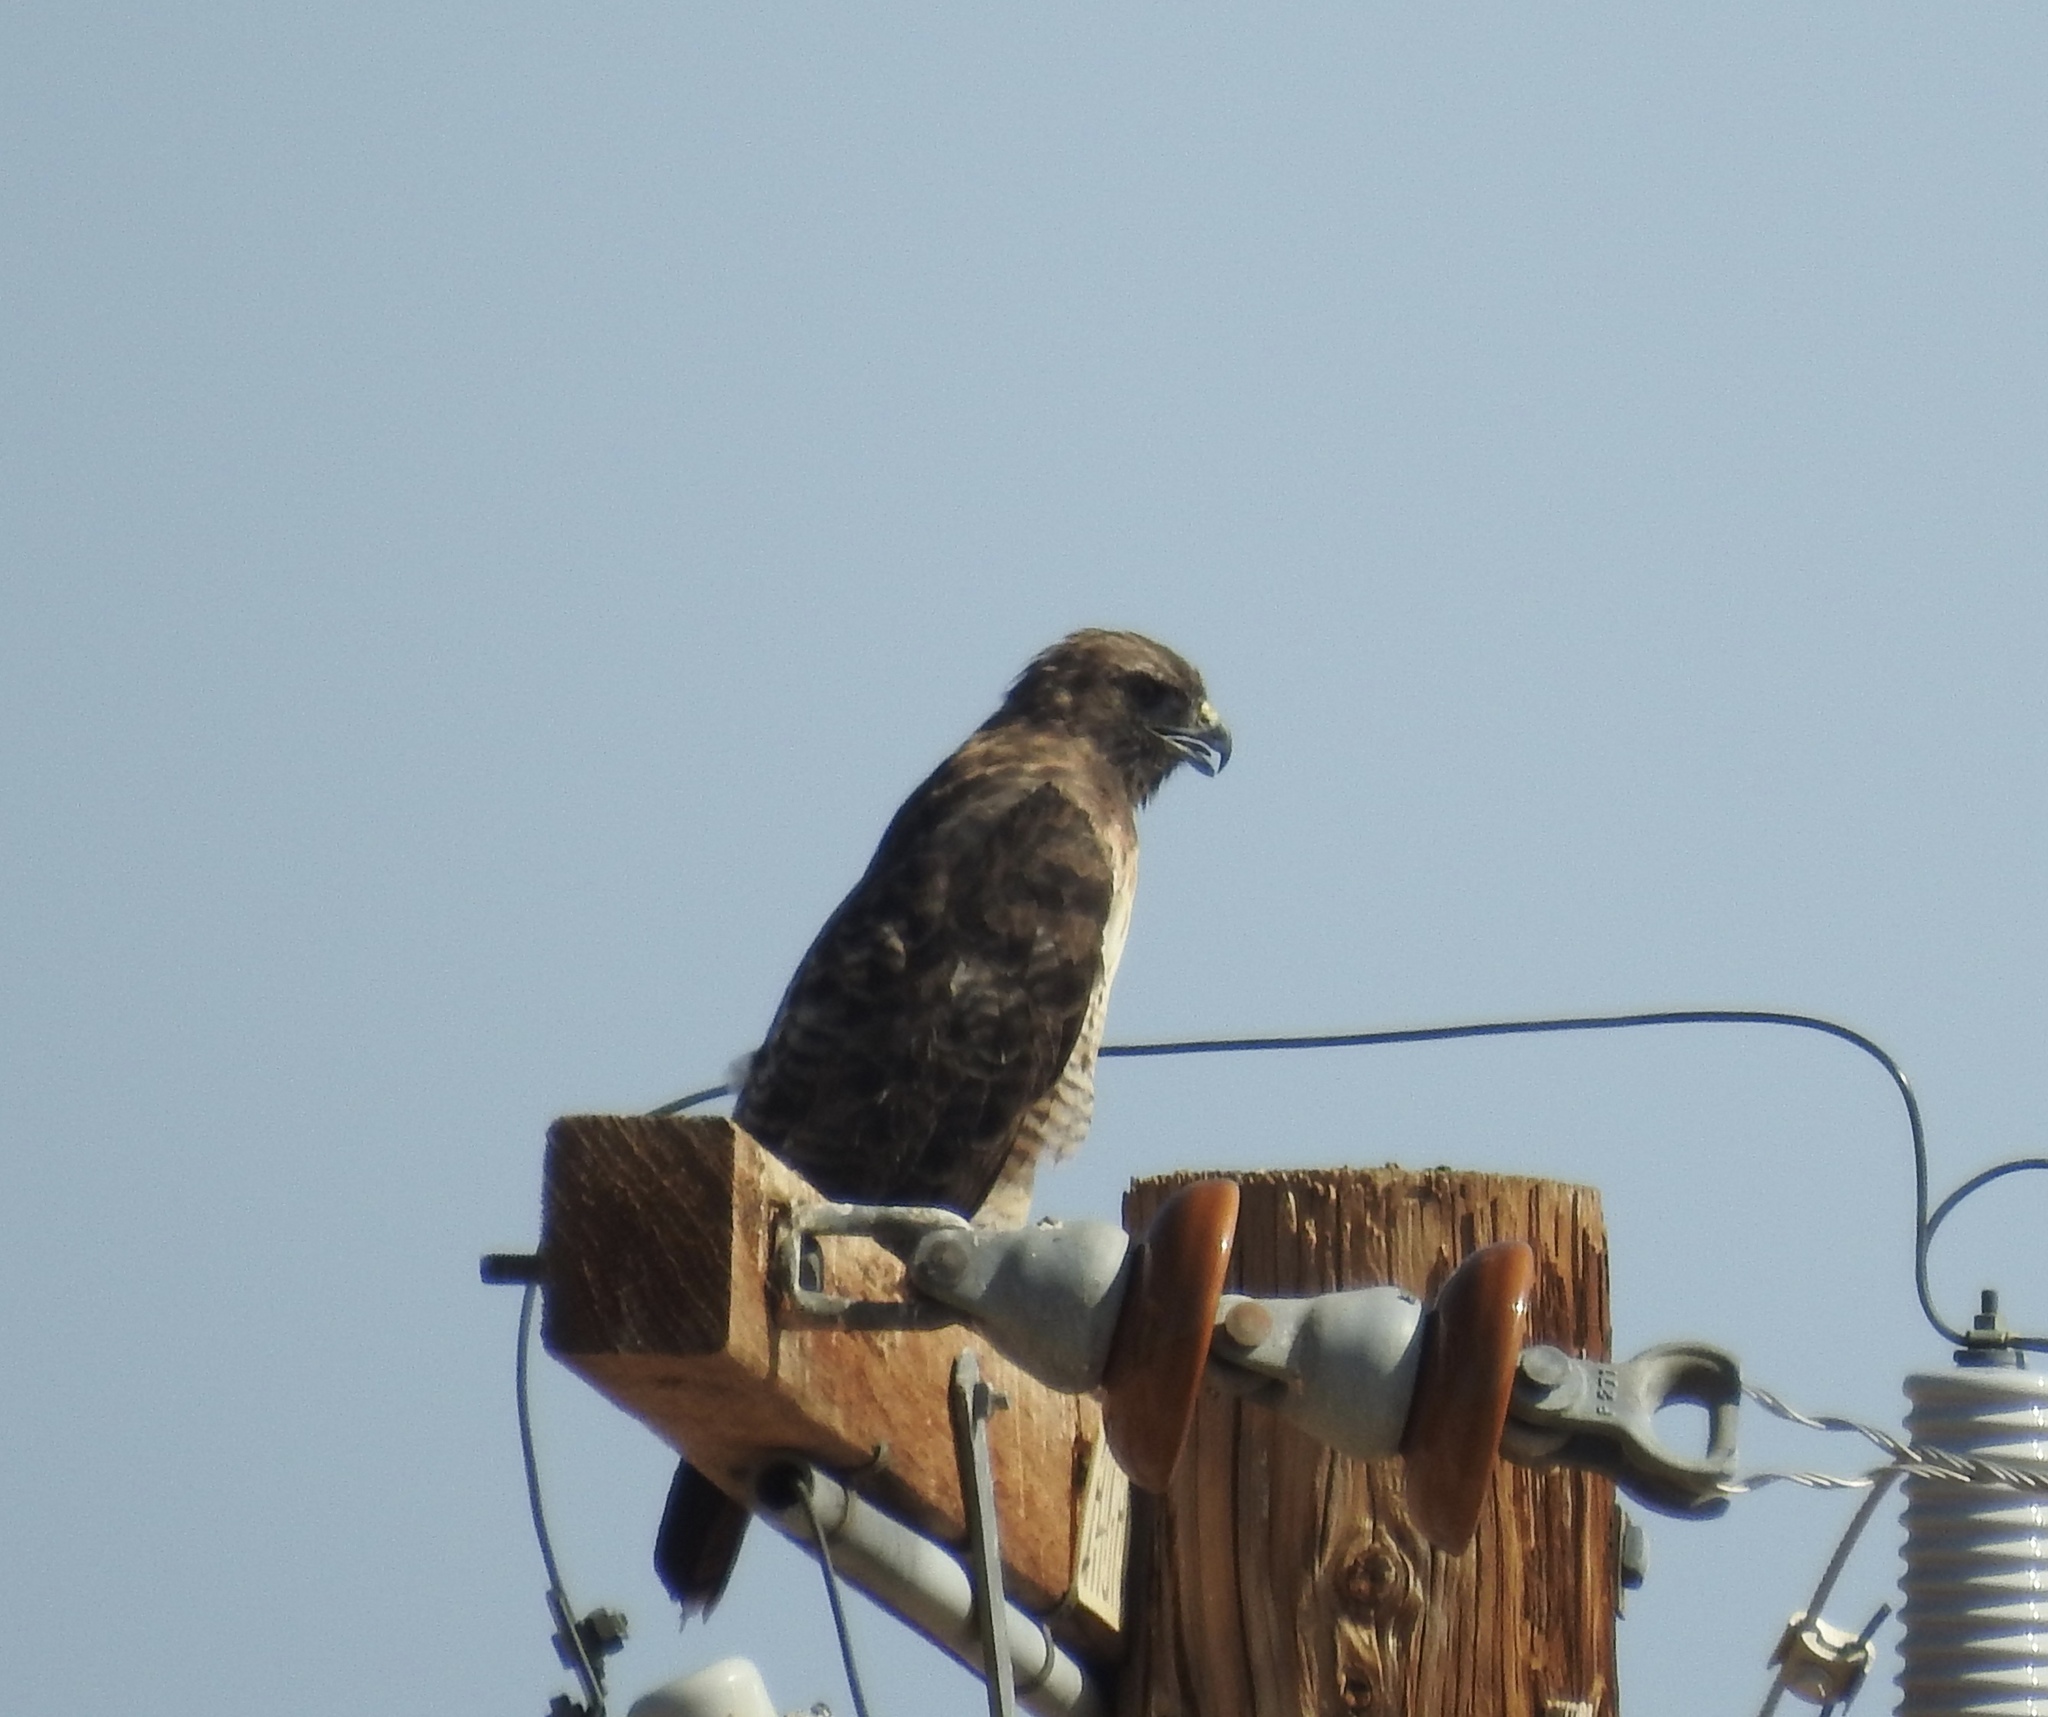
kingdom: Animalia
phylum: Chordata
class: Aves
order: Accipitriformes
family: Accipitridae
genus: Buteo
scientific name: Buteo jamaicensis
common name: Red-tailed hawk
